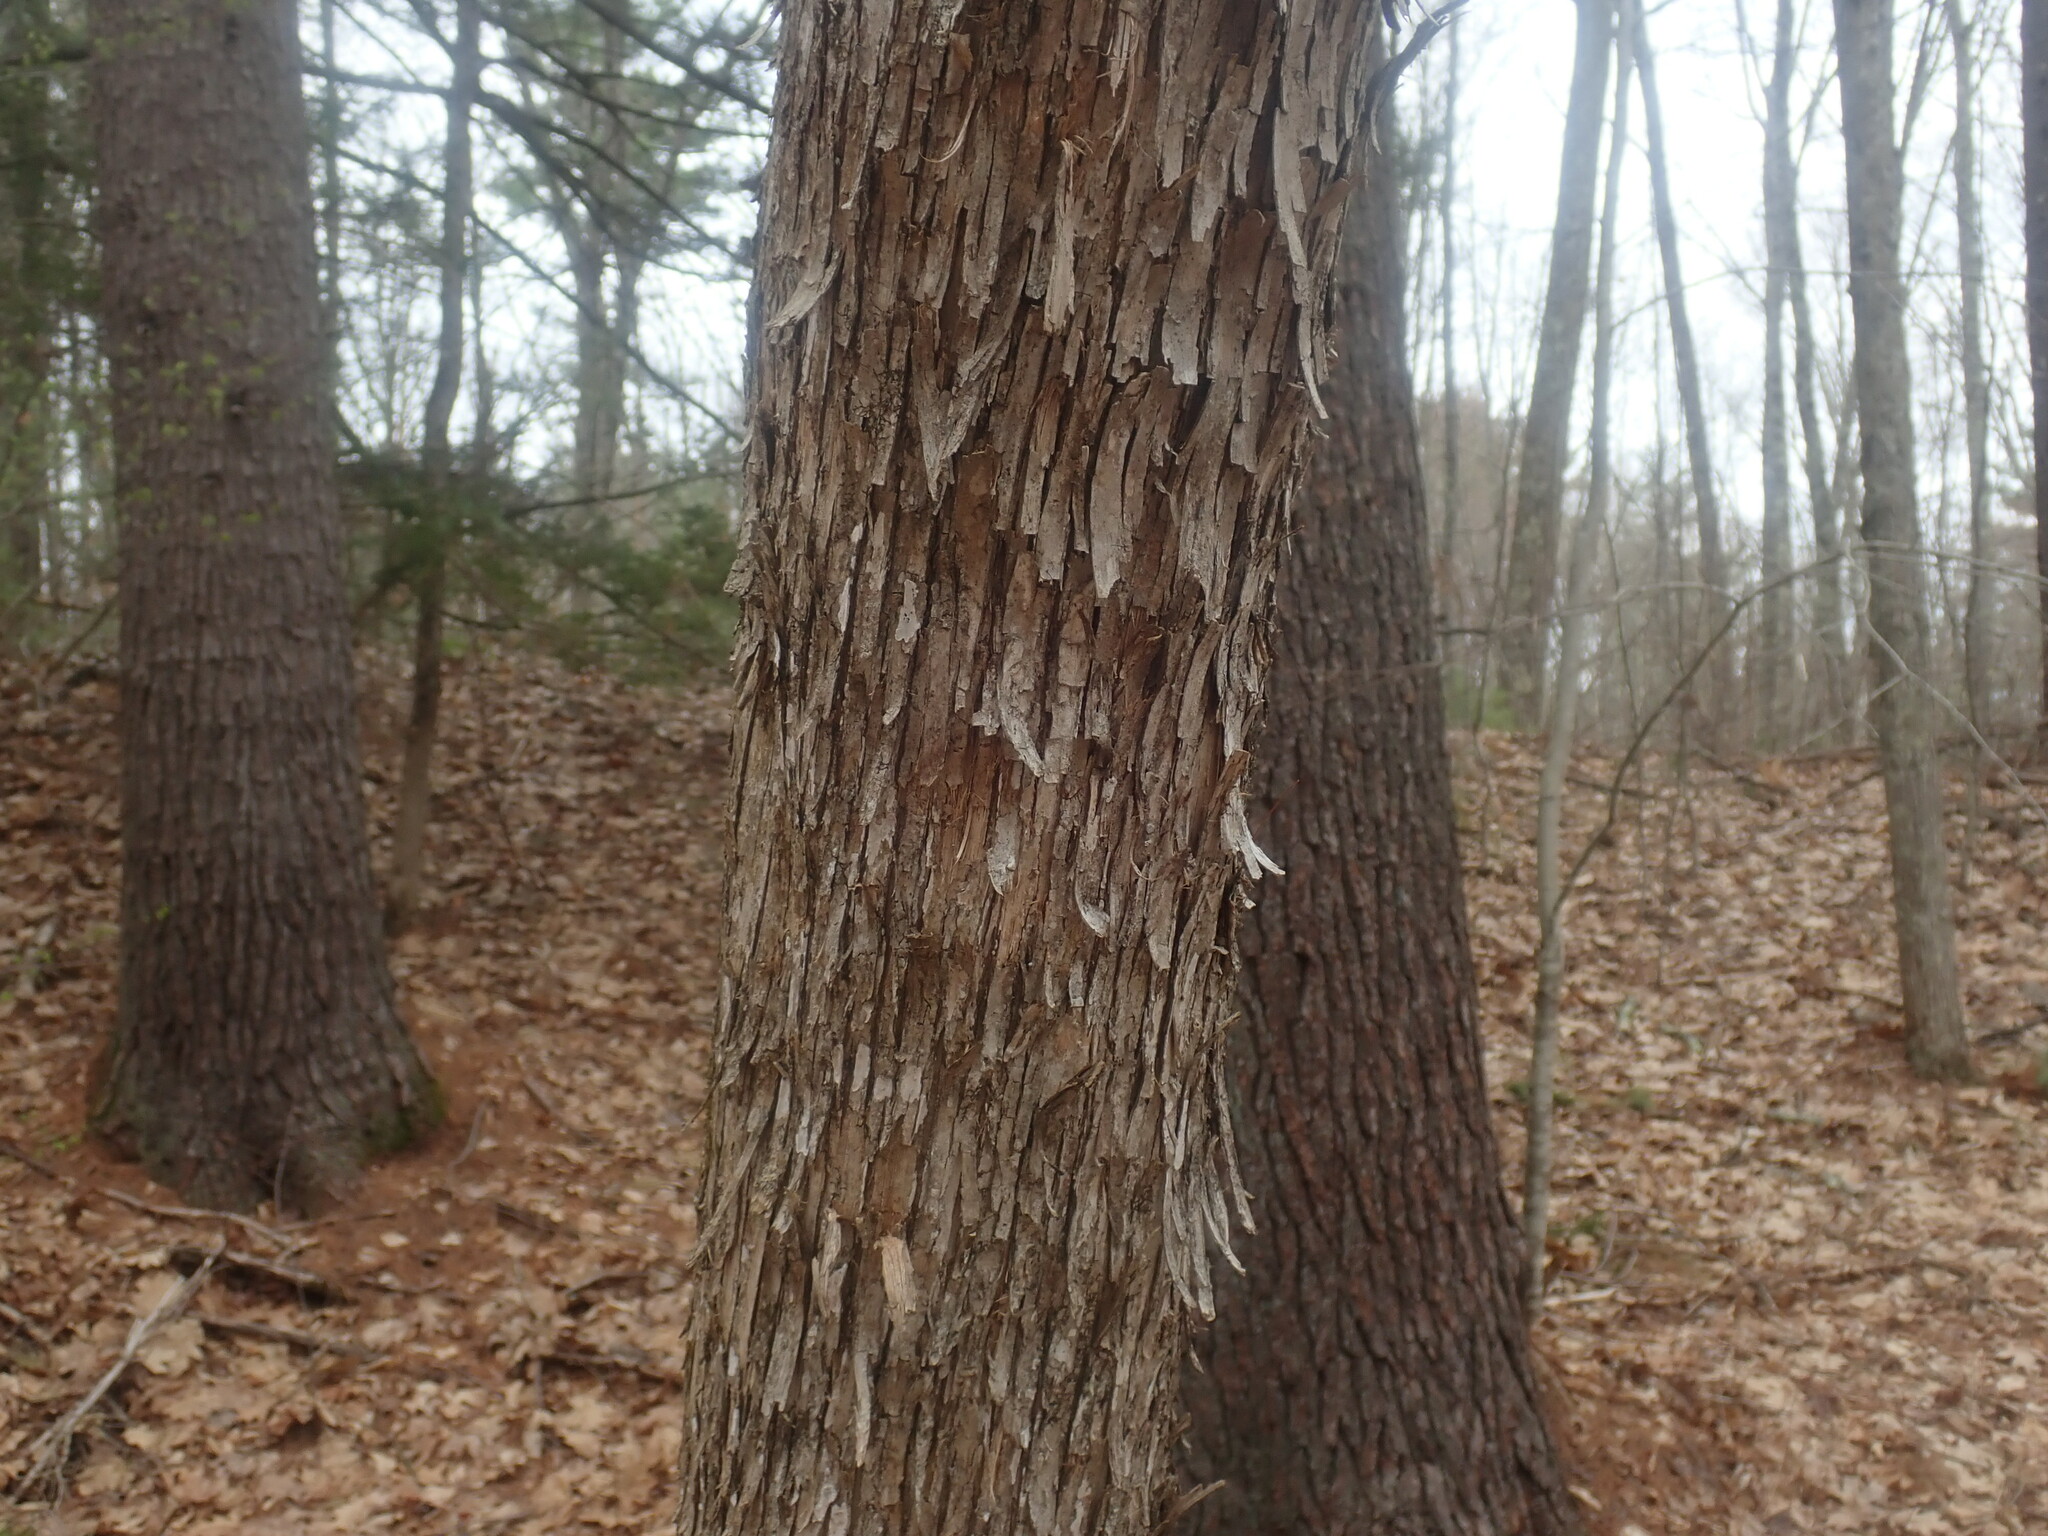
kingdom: Plantae
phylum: Tracheophyta
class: Magnoliopsida
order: Fagales
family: Betulaceae
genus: Ostrya
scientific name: Ostrya virginiana
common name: Ironwood
